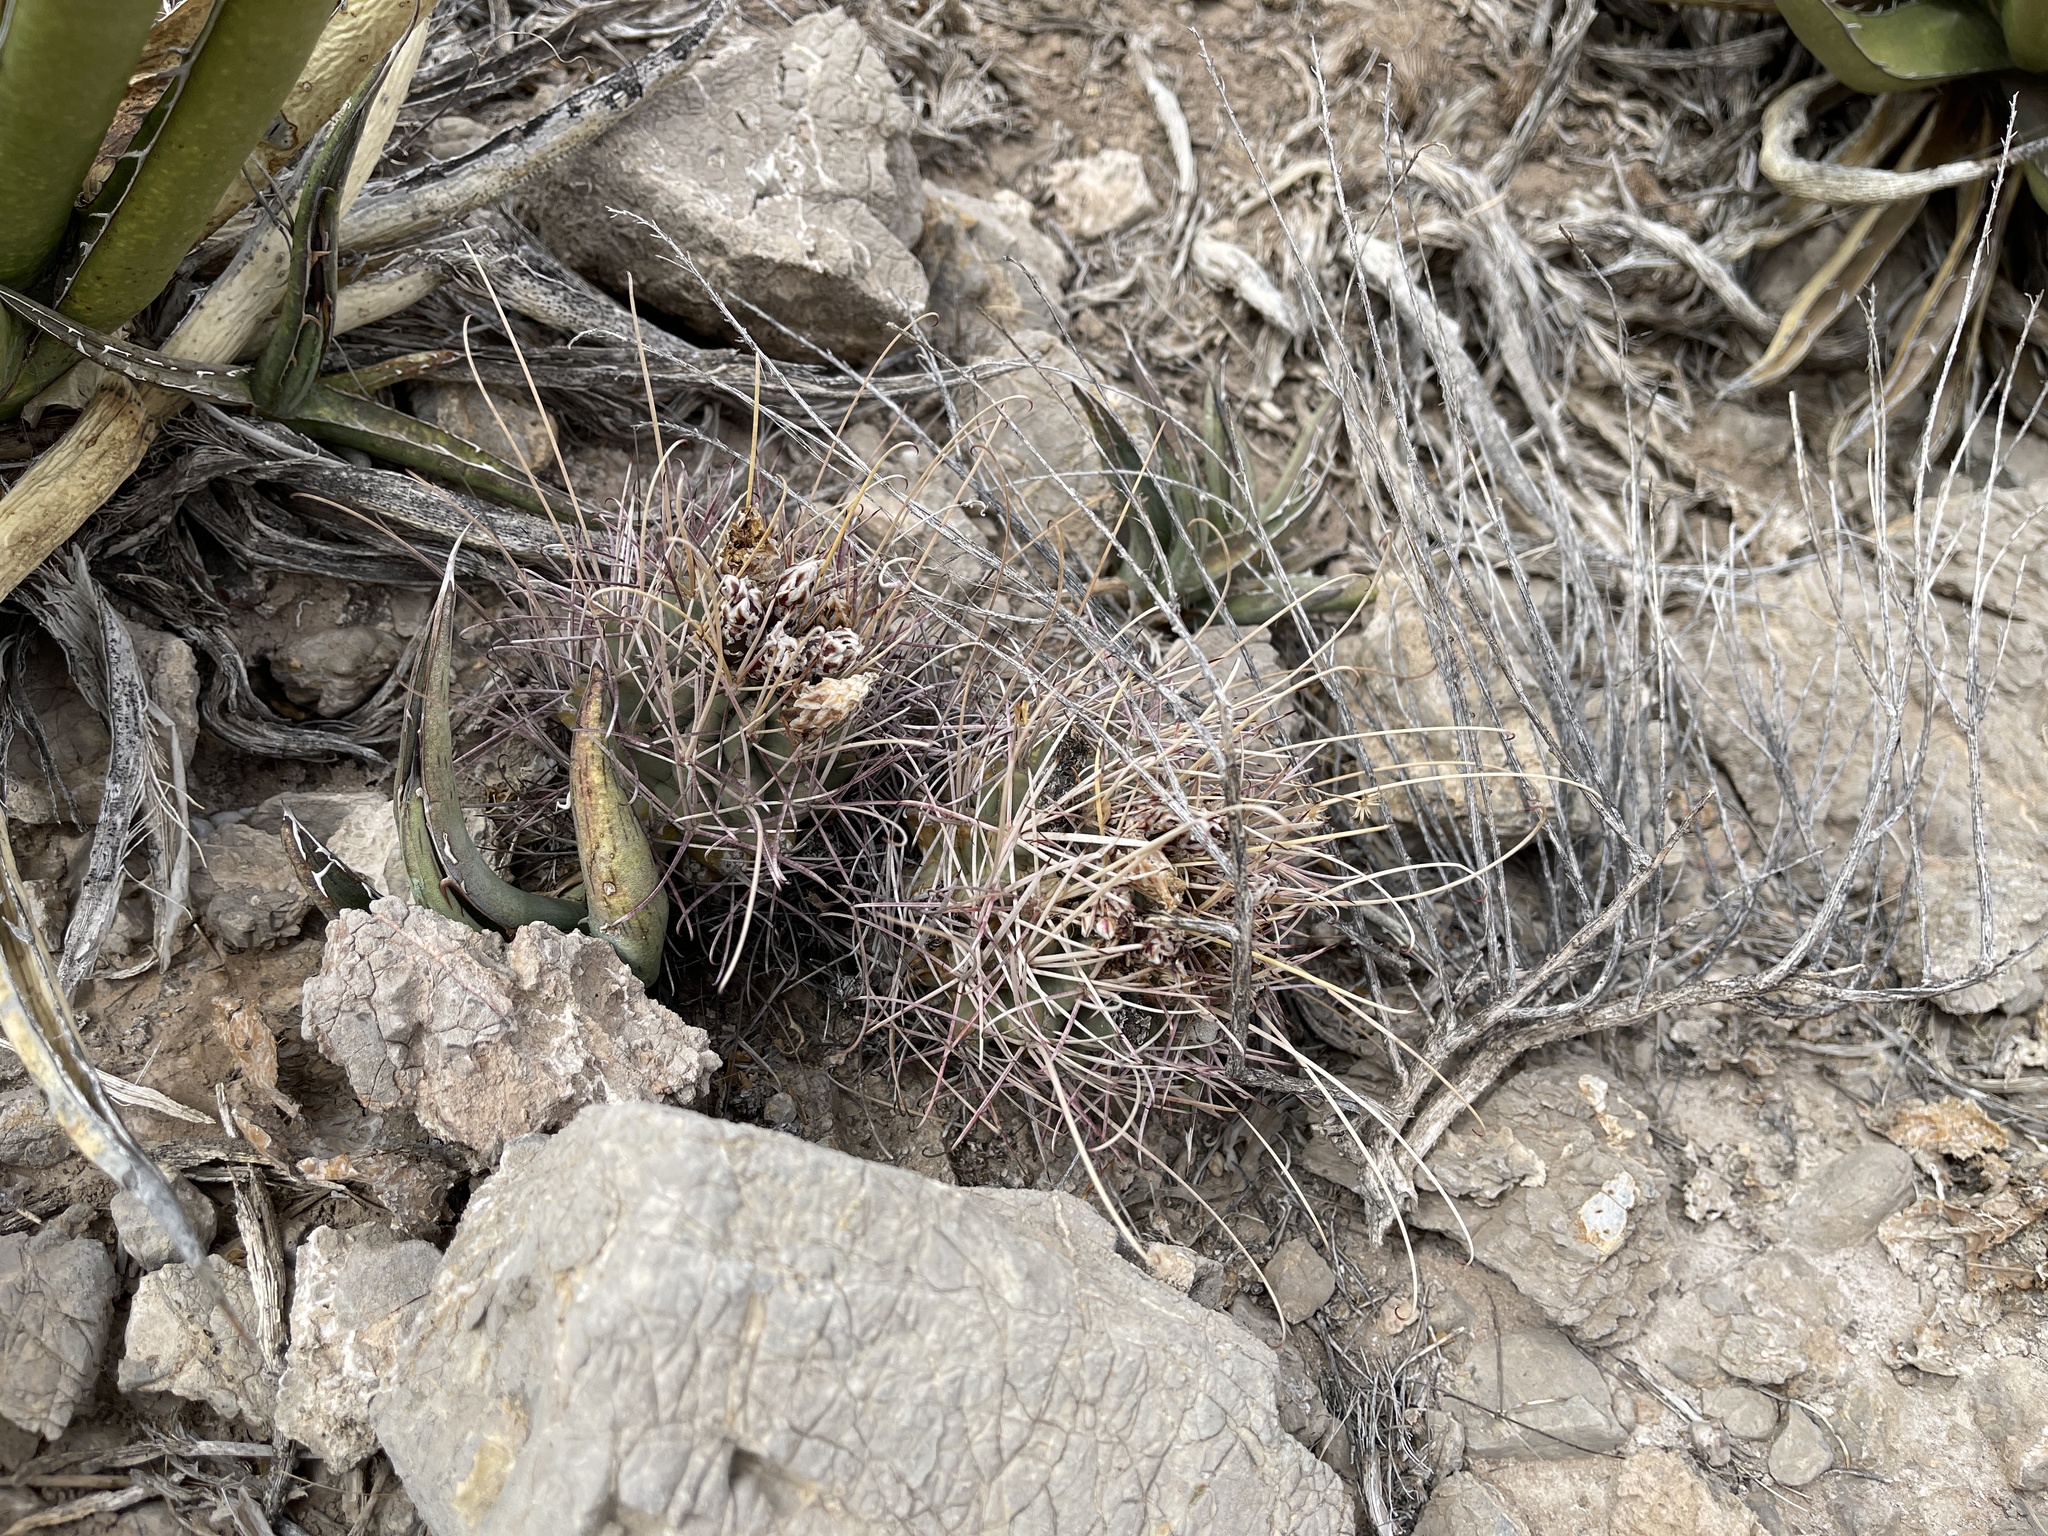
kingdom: Plantae
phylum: Tracheophyta
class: Magnoliopsida
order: Caryophyllales
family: Cactaceae
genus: Ferocactus
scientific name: Ferocactus uncinatus
